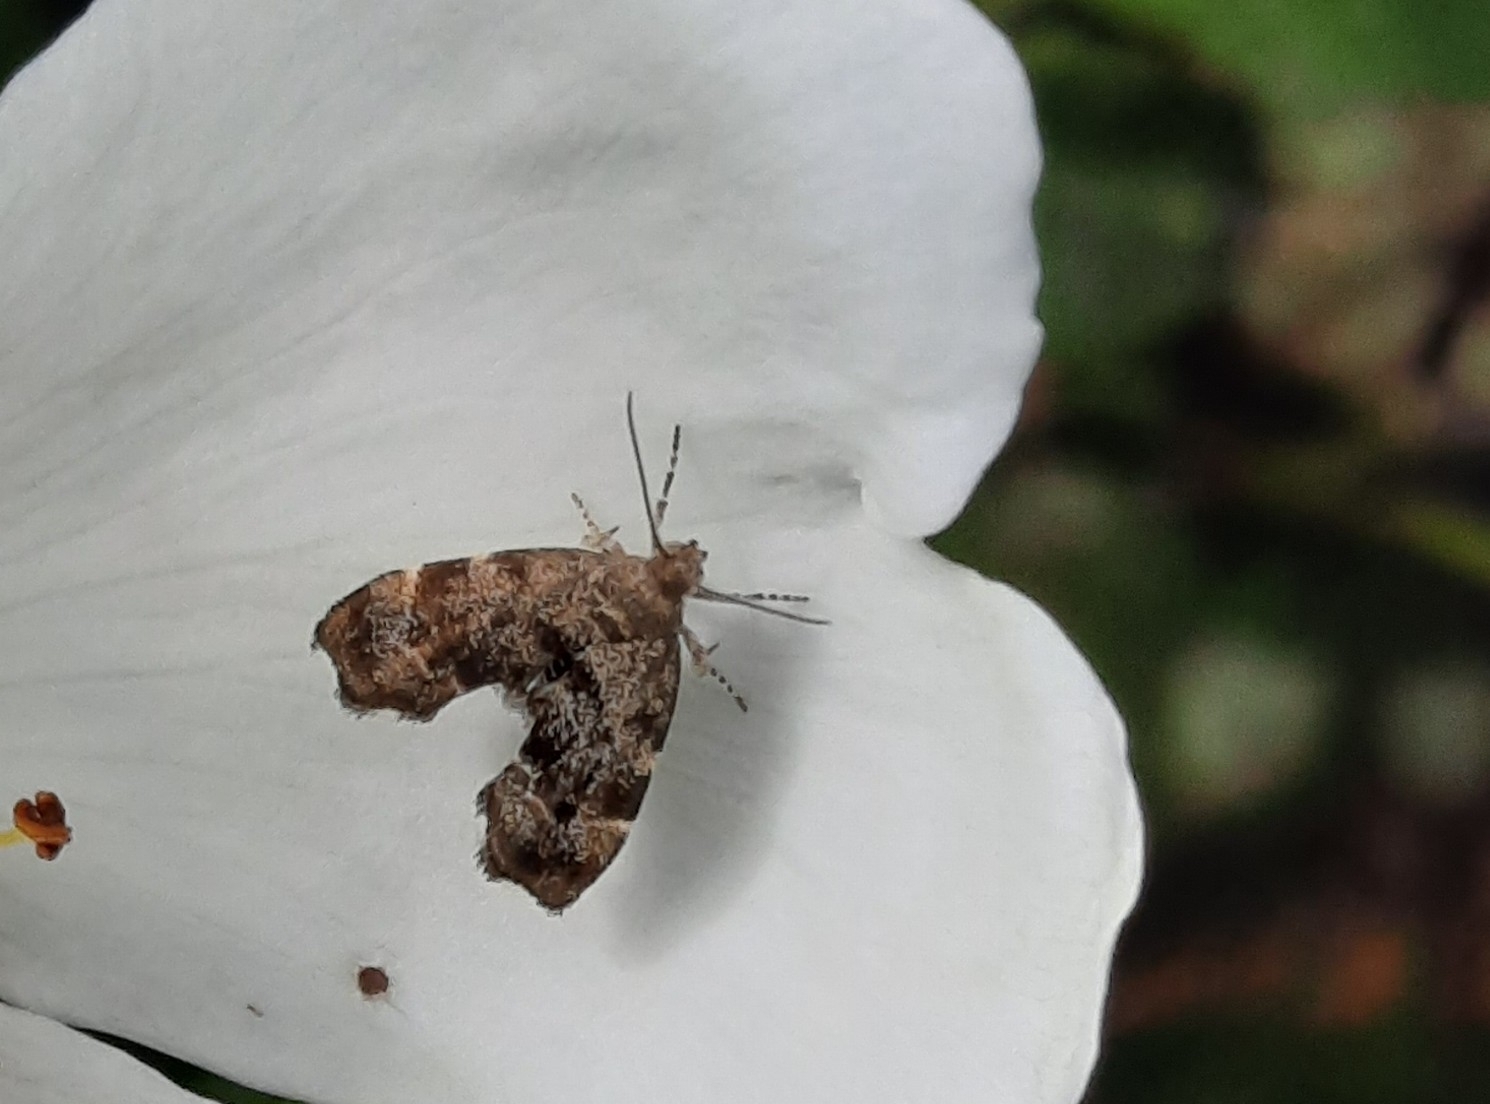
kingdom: Animalia
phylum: Arthropoda
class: Insecta
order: Lepidoptera
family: Choreutidae
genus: Anthophila
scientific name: Anthophila fabriciana
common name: Nettle-tap
